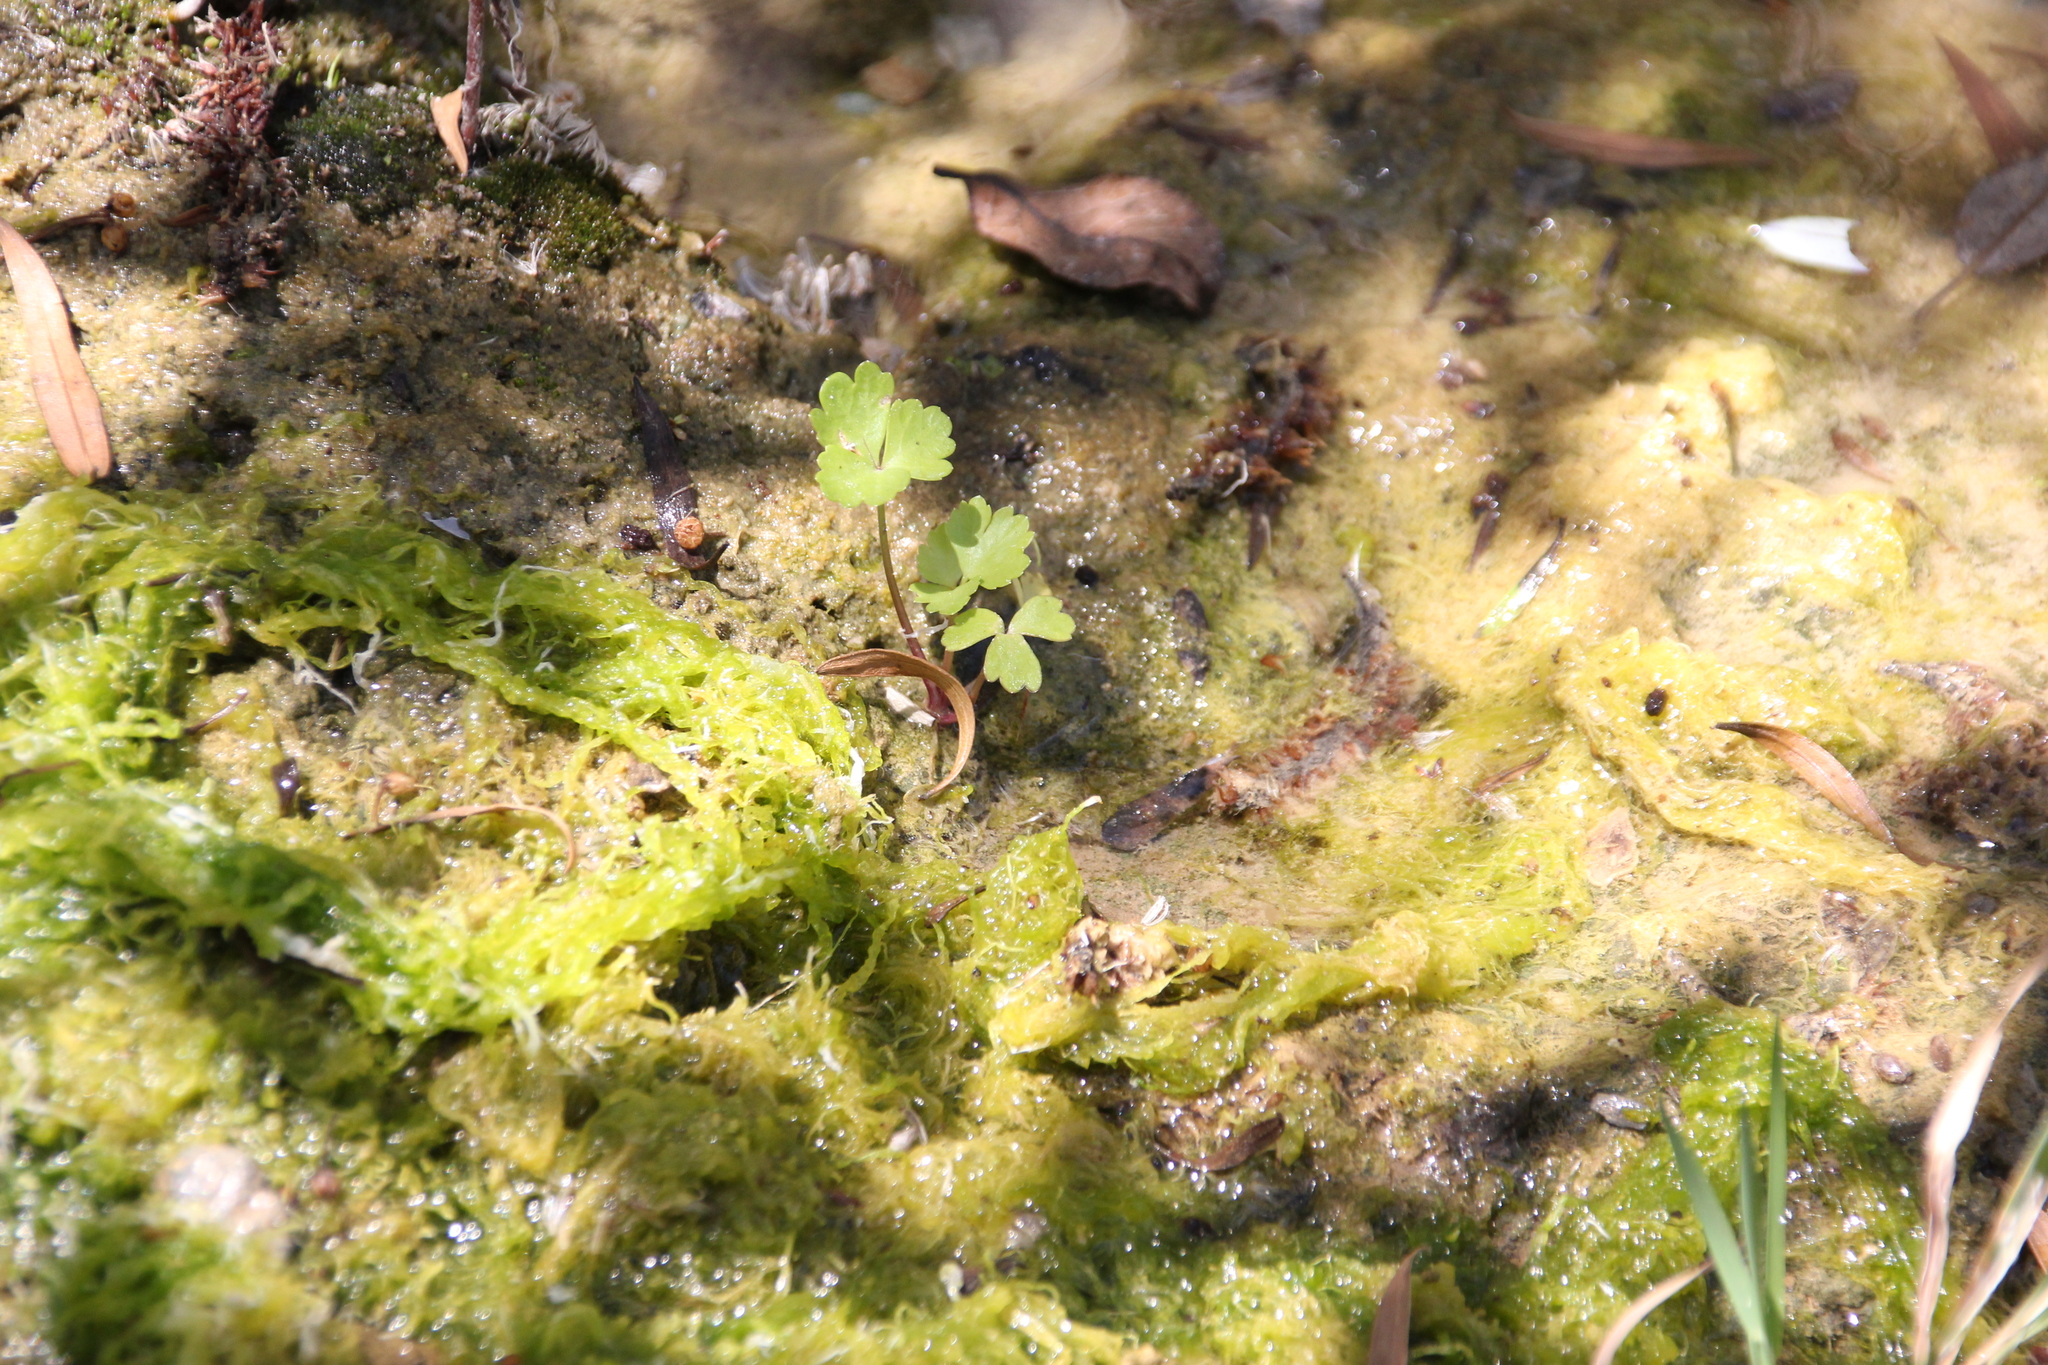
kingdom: Plantae
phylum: Tracheophyta
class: Magnoliopsida
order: Apiales
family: Apiaceae
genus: Apium
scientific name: Apium graveolens
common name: Wild celery
